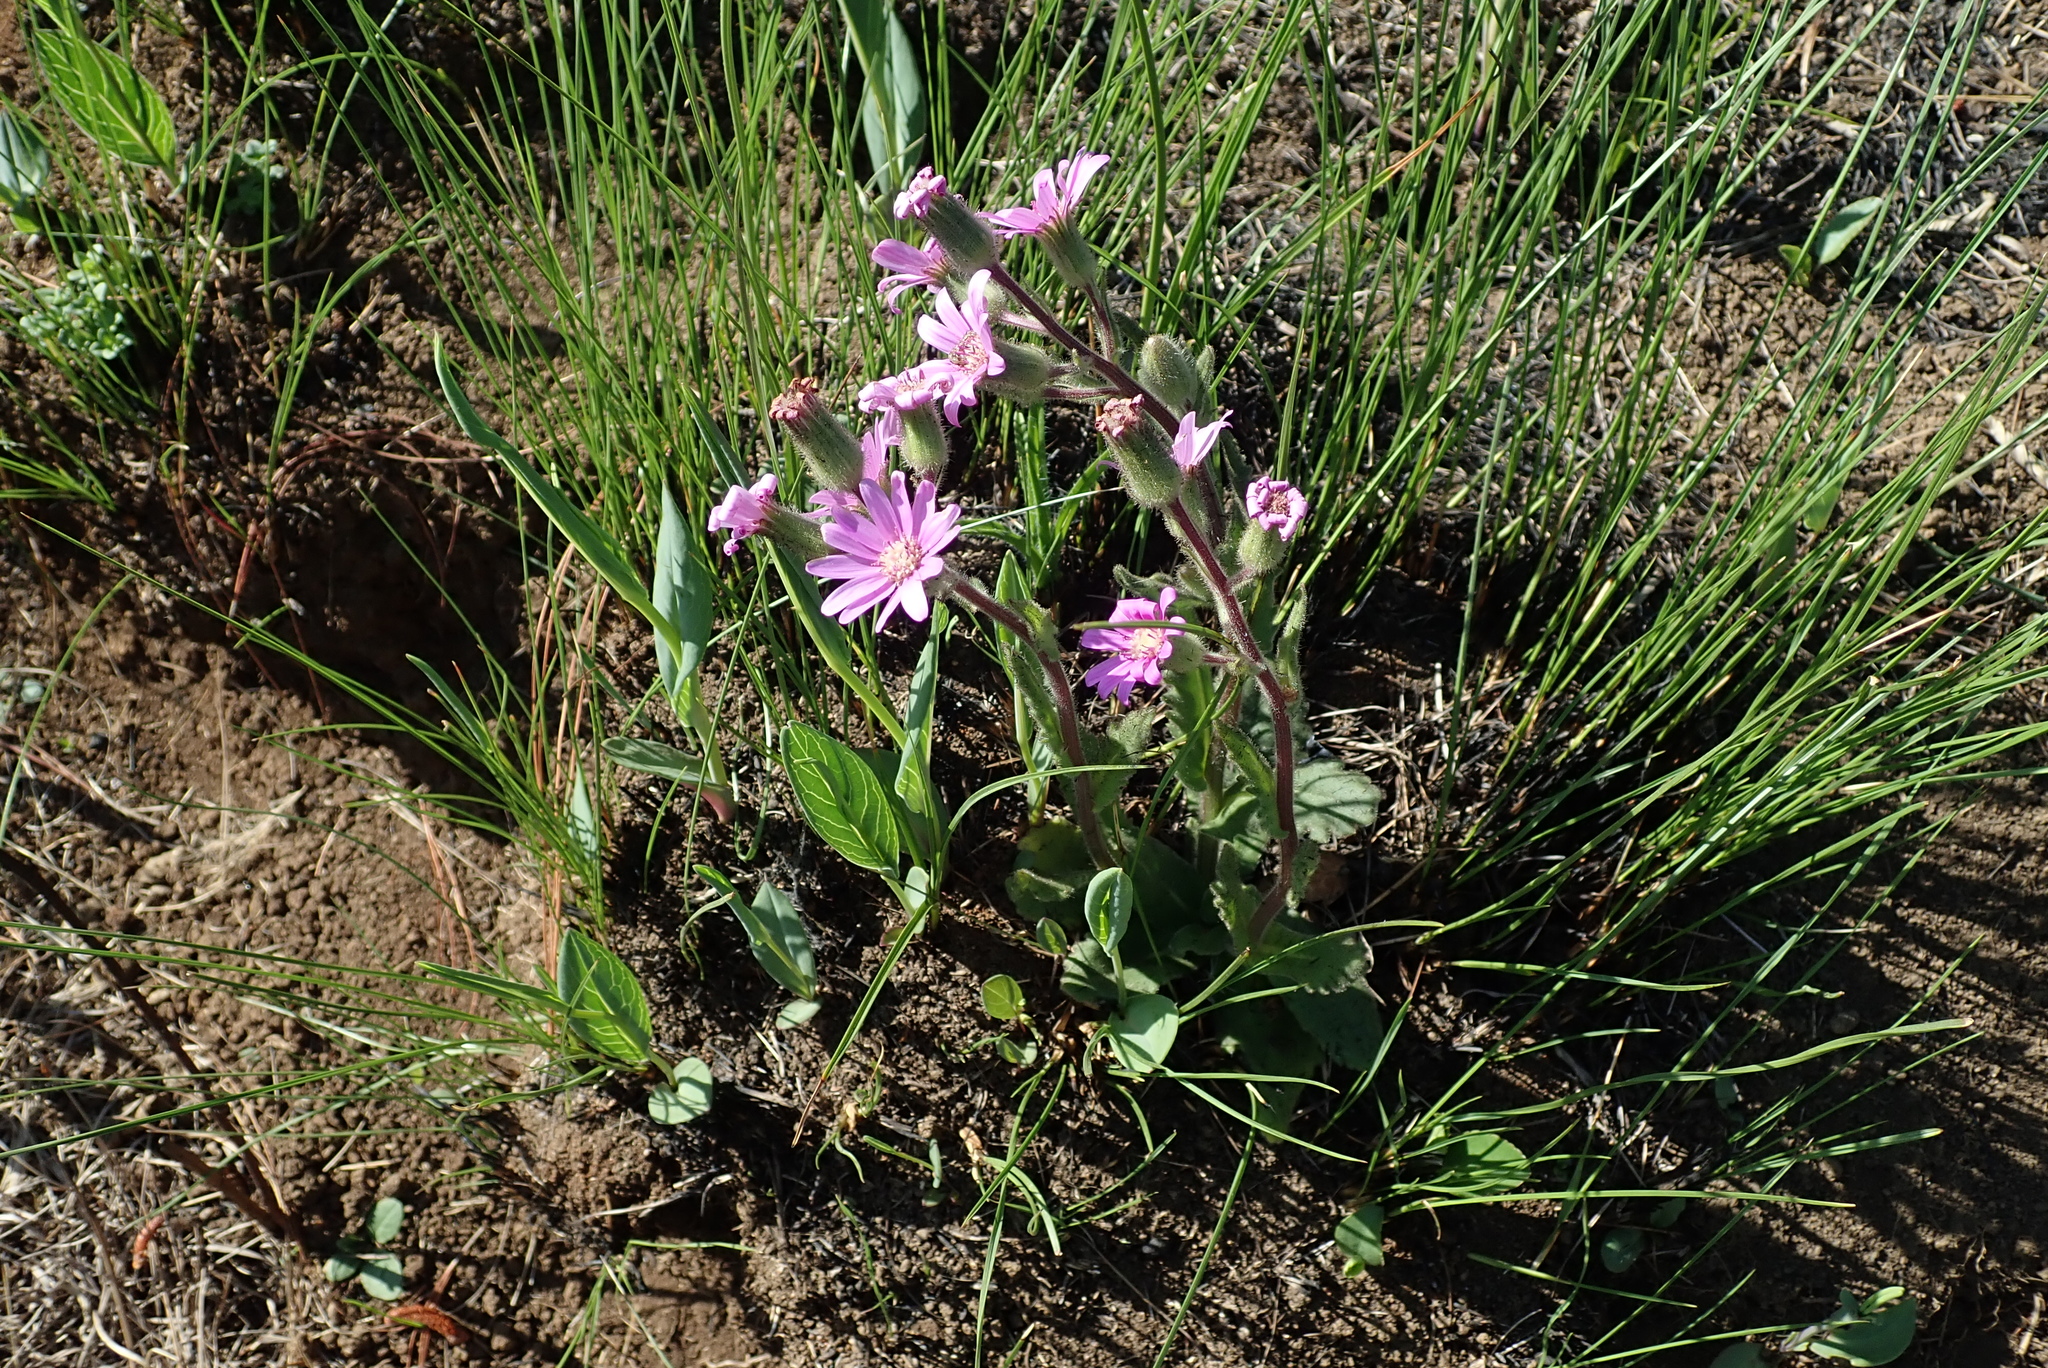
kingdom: Plantae
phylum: Tracheophyta
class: Magnoliopsida
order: Asterales
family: Asteraceae
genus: Senecio
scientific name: Senecio speciosus
